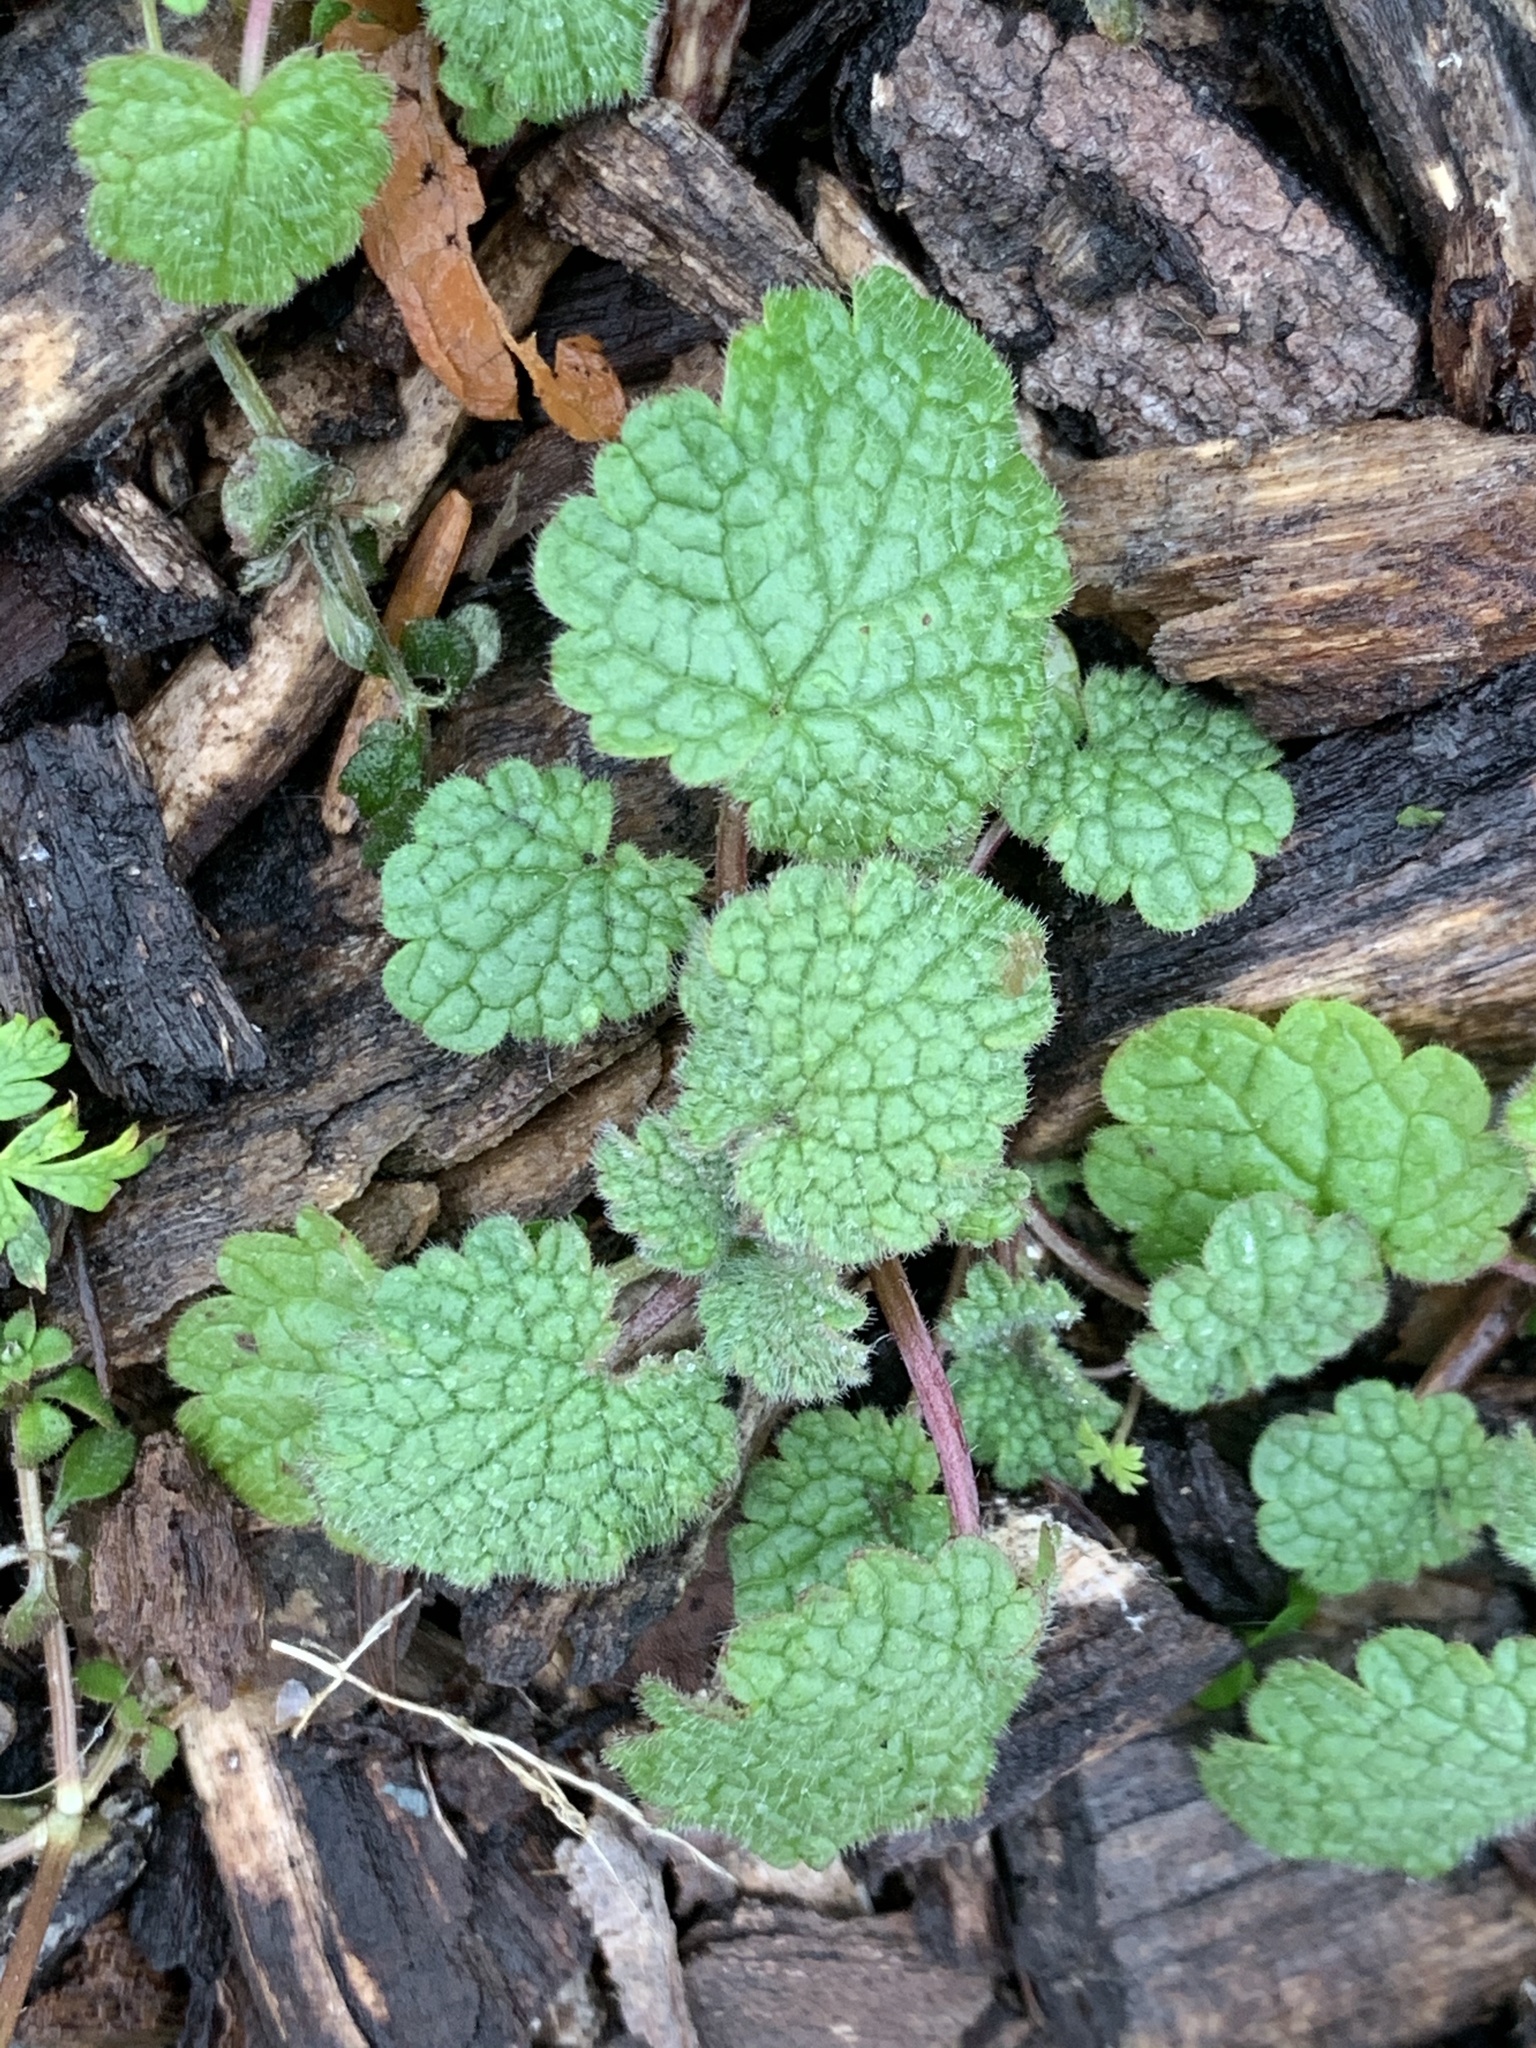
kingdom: Plantae
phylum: Tracheophyta
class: Magnoliopsida
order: Lamiales
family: Lamiaceae
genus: Lamium
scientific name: Lamium purpureum
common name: Red dead-nettle
